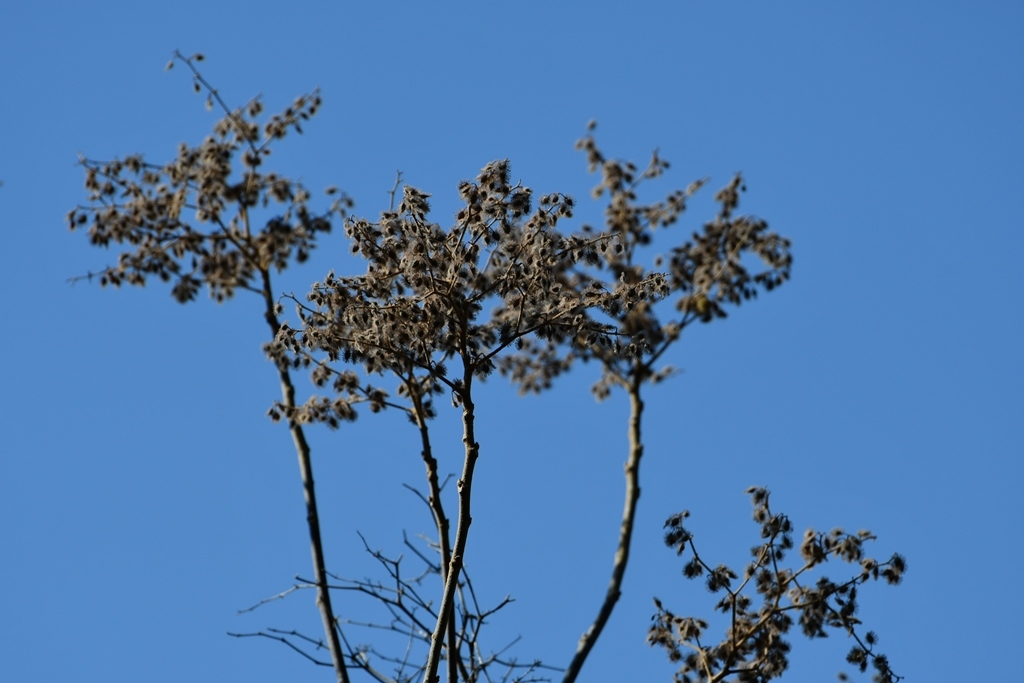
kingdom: Plantae
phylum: Tracheophyta
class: Magnoliopsida
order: Malvales
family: Malvaceae
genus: Heliocarpus
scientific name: Heliocarpus terebinthinaceus
